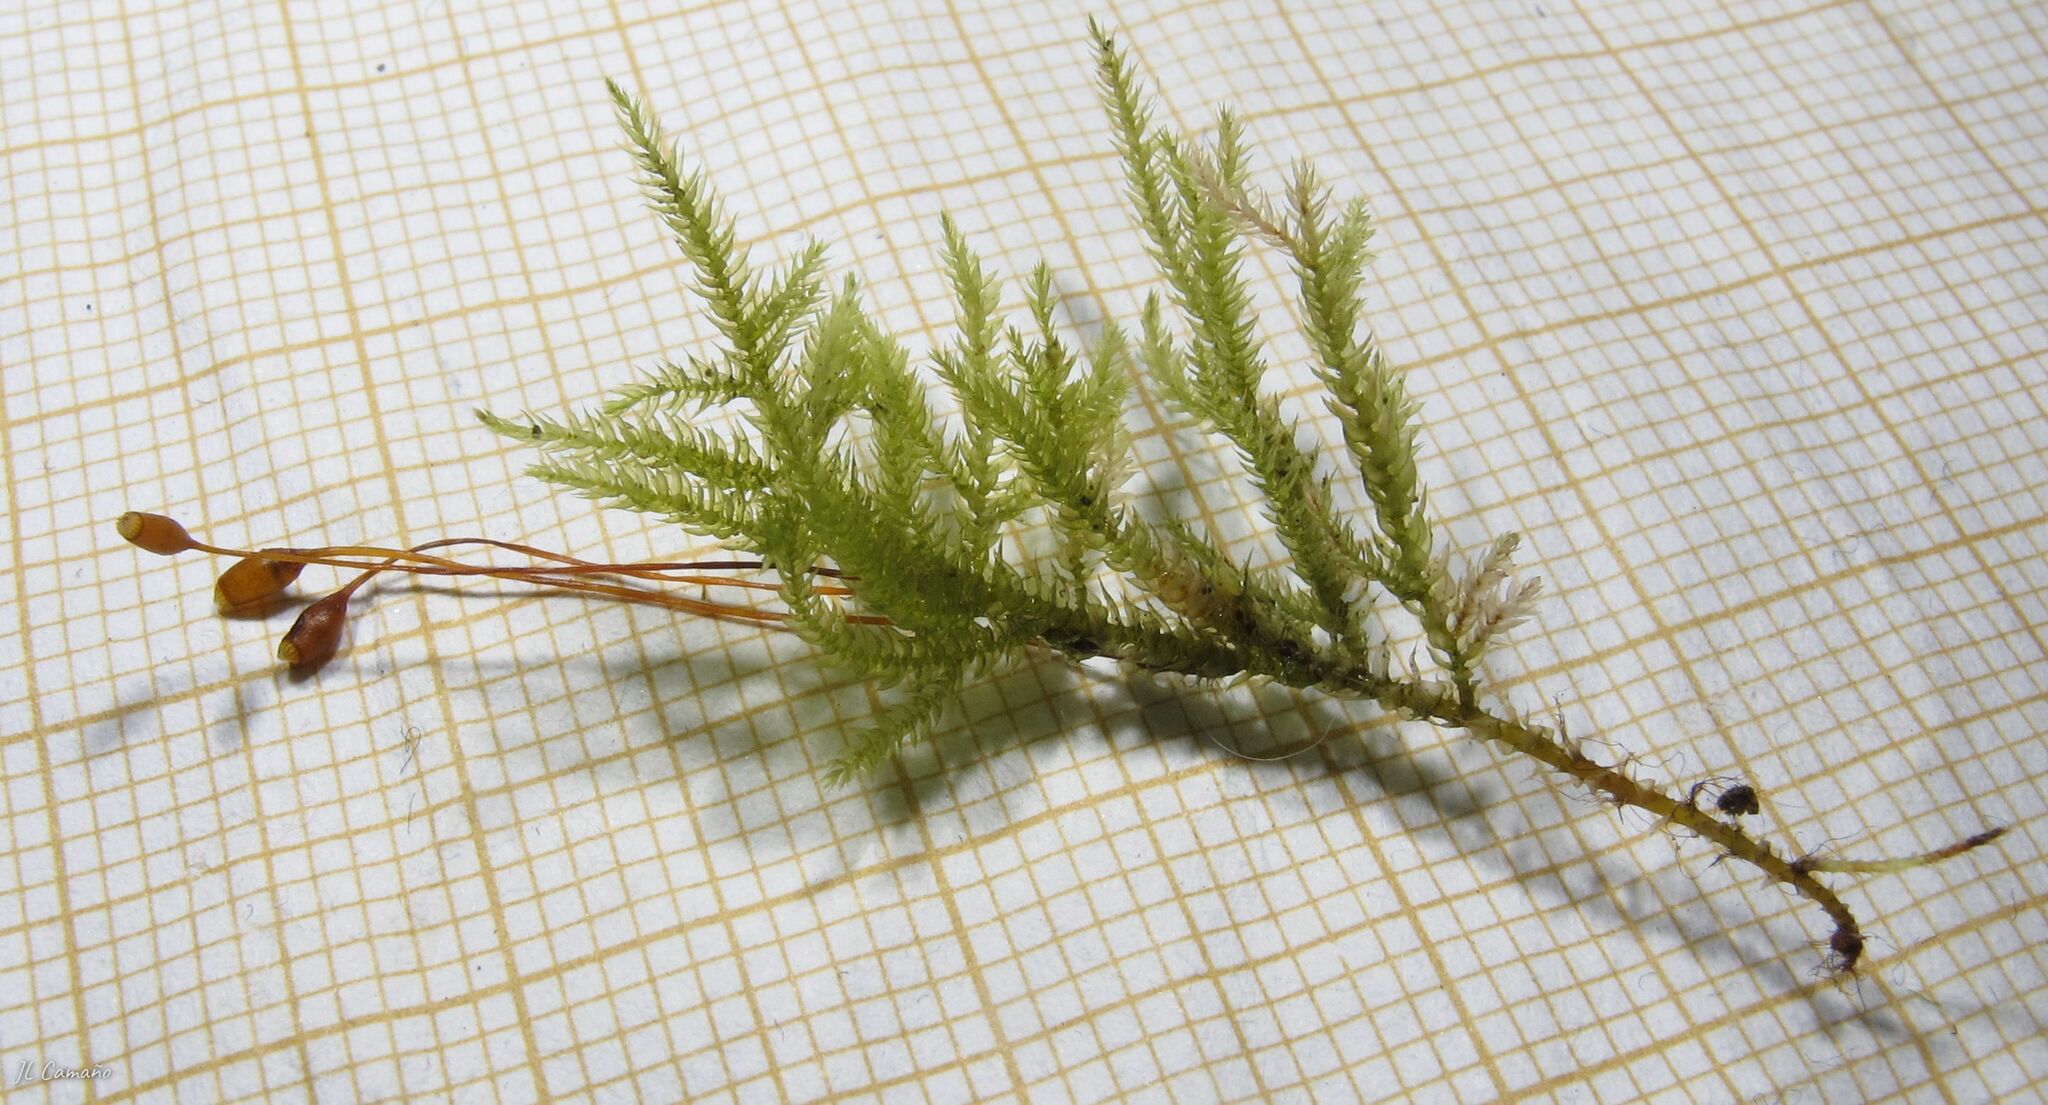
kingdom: Plantae
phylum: Bryophyta
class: Bryopsida
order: Hypnales
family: Lembophyllaceae
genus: Pseudisothecium
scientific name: Pseudisothecium myosuroides
